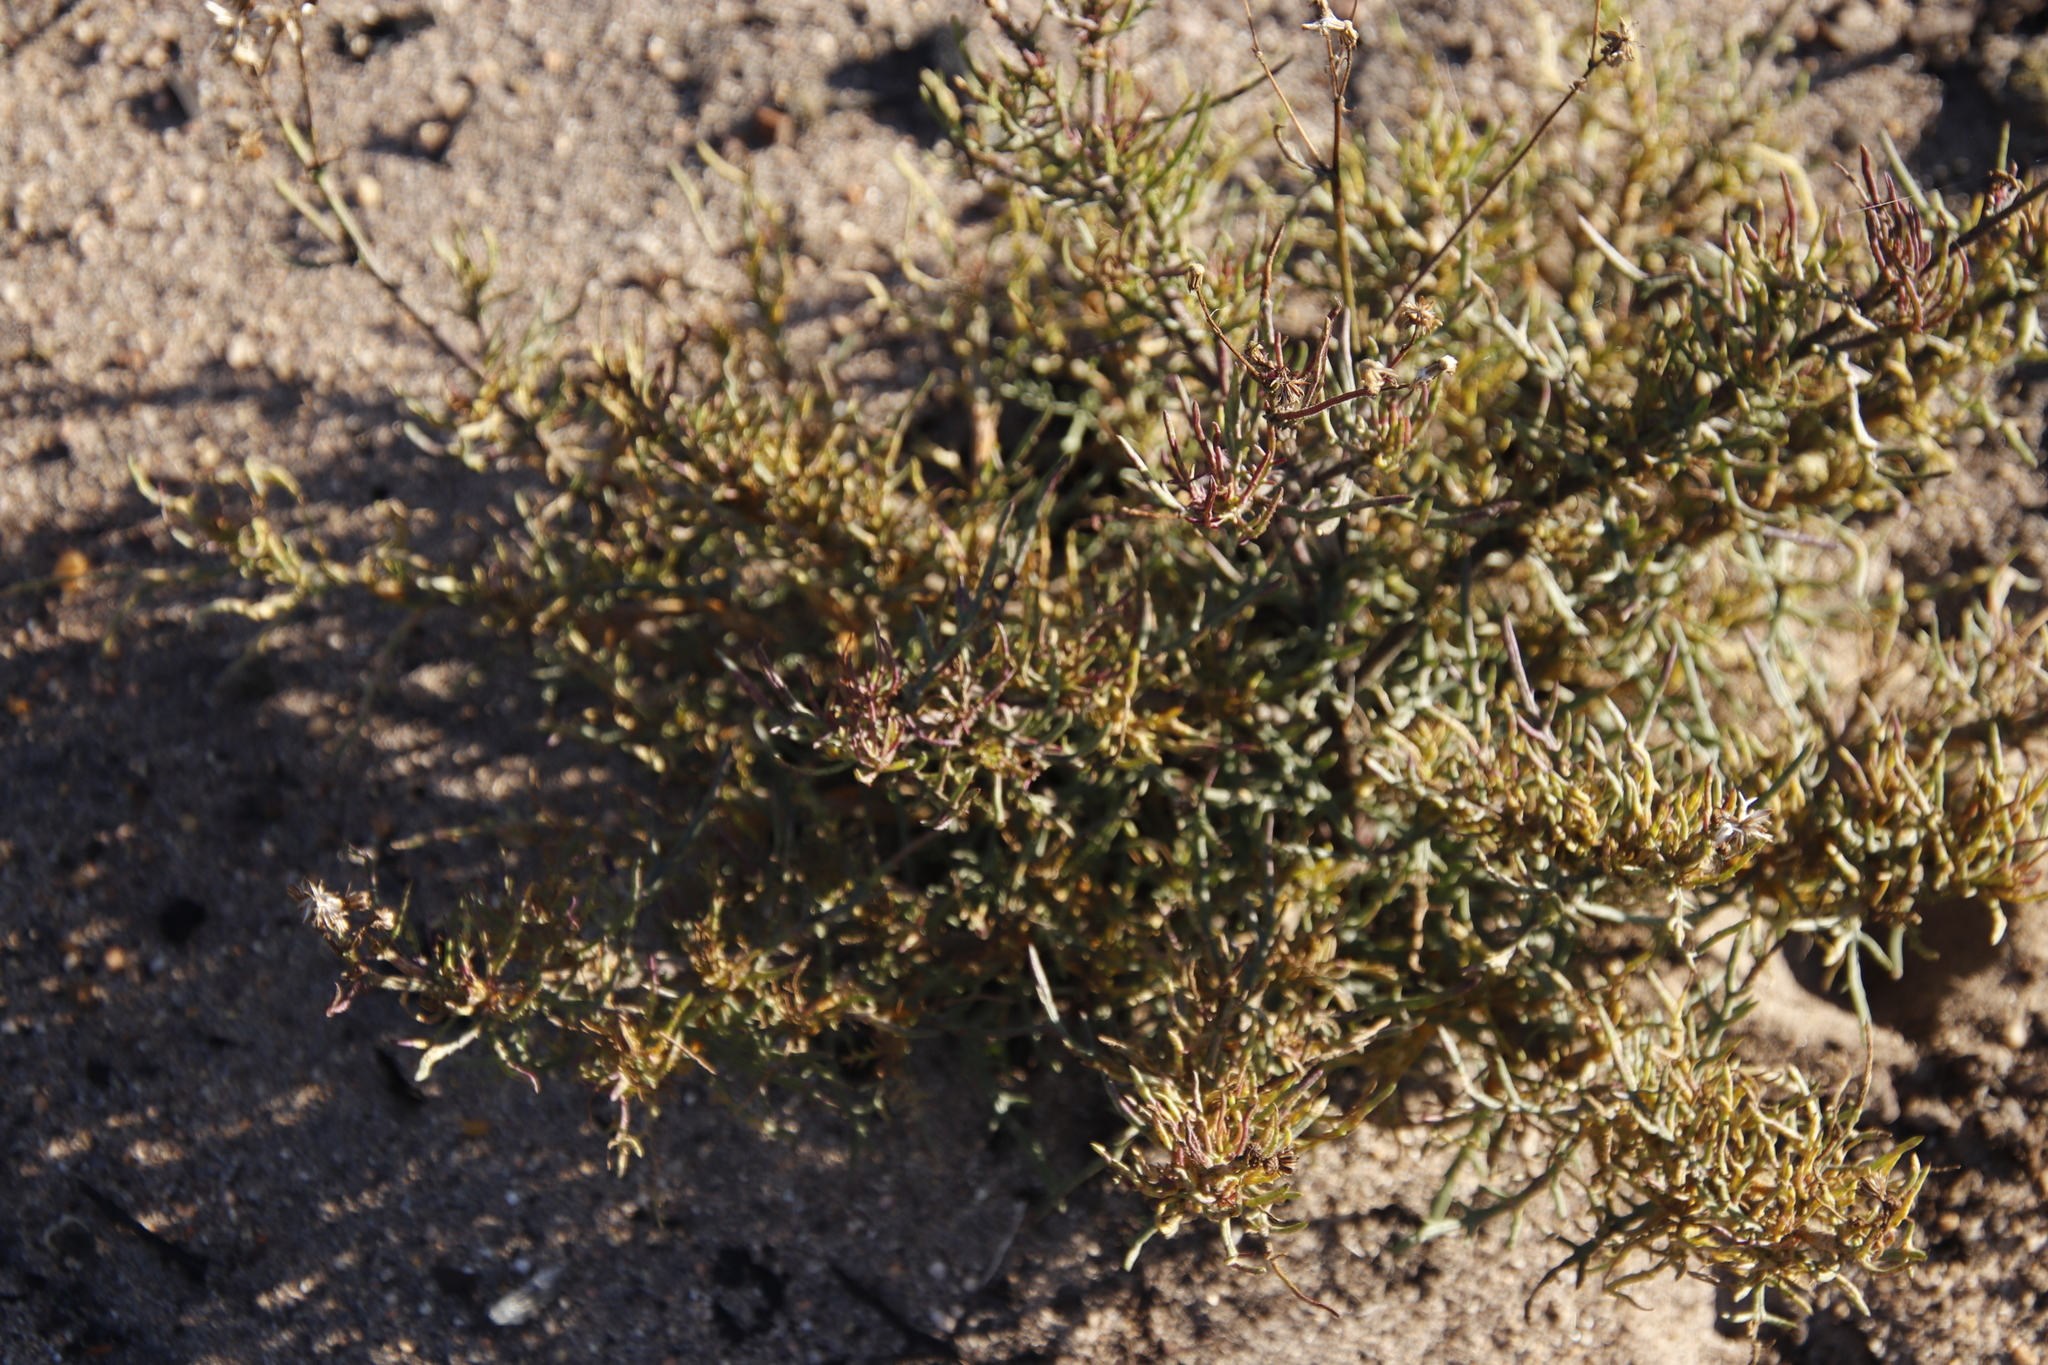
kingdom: Plantae
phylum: Tracheophyta
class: Magnoliopsida
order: Asterales
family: Asteraceae
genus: Senecio
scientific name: Senecio burchellii
